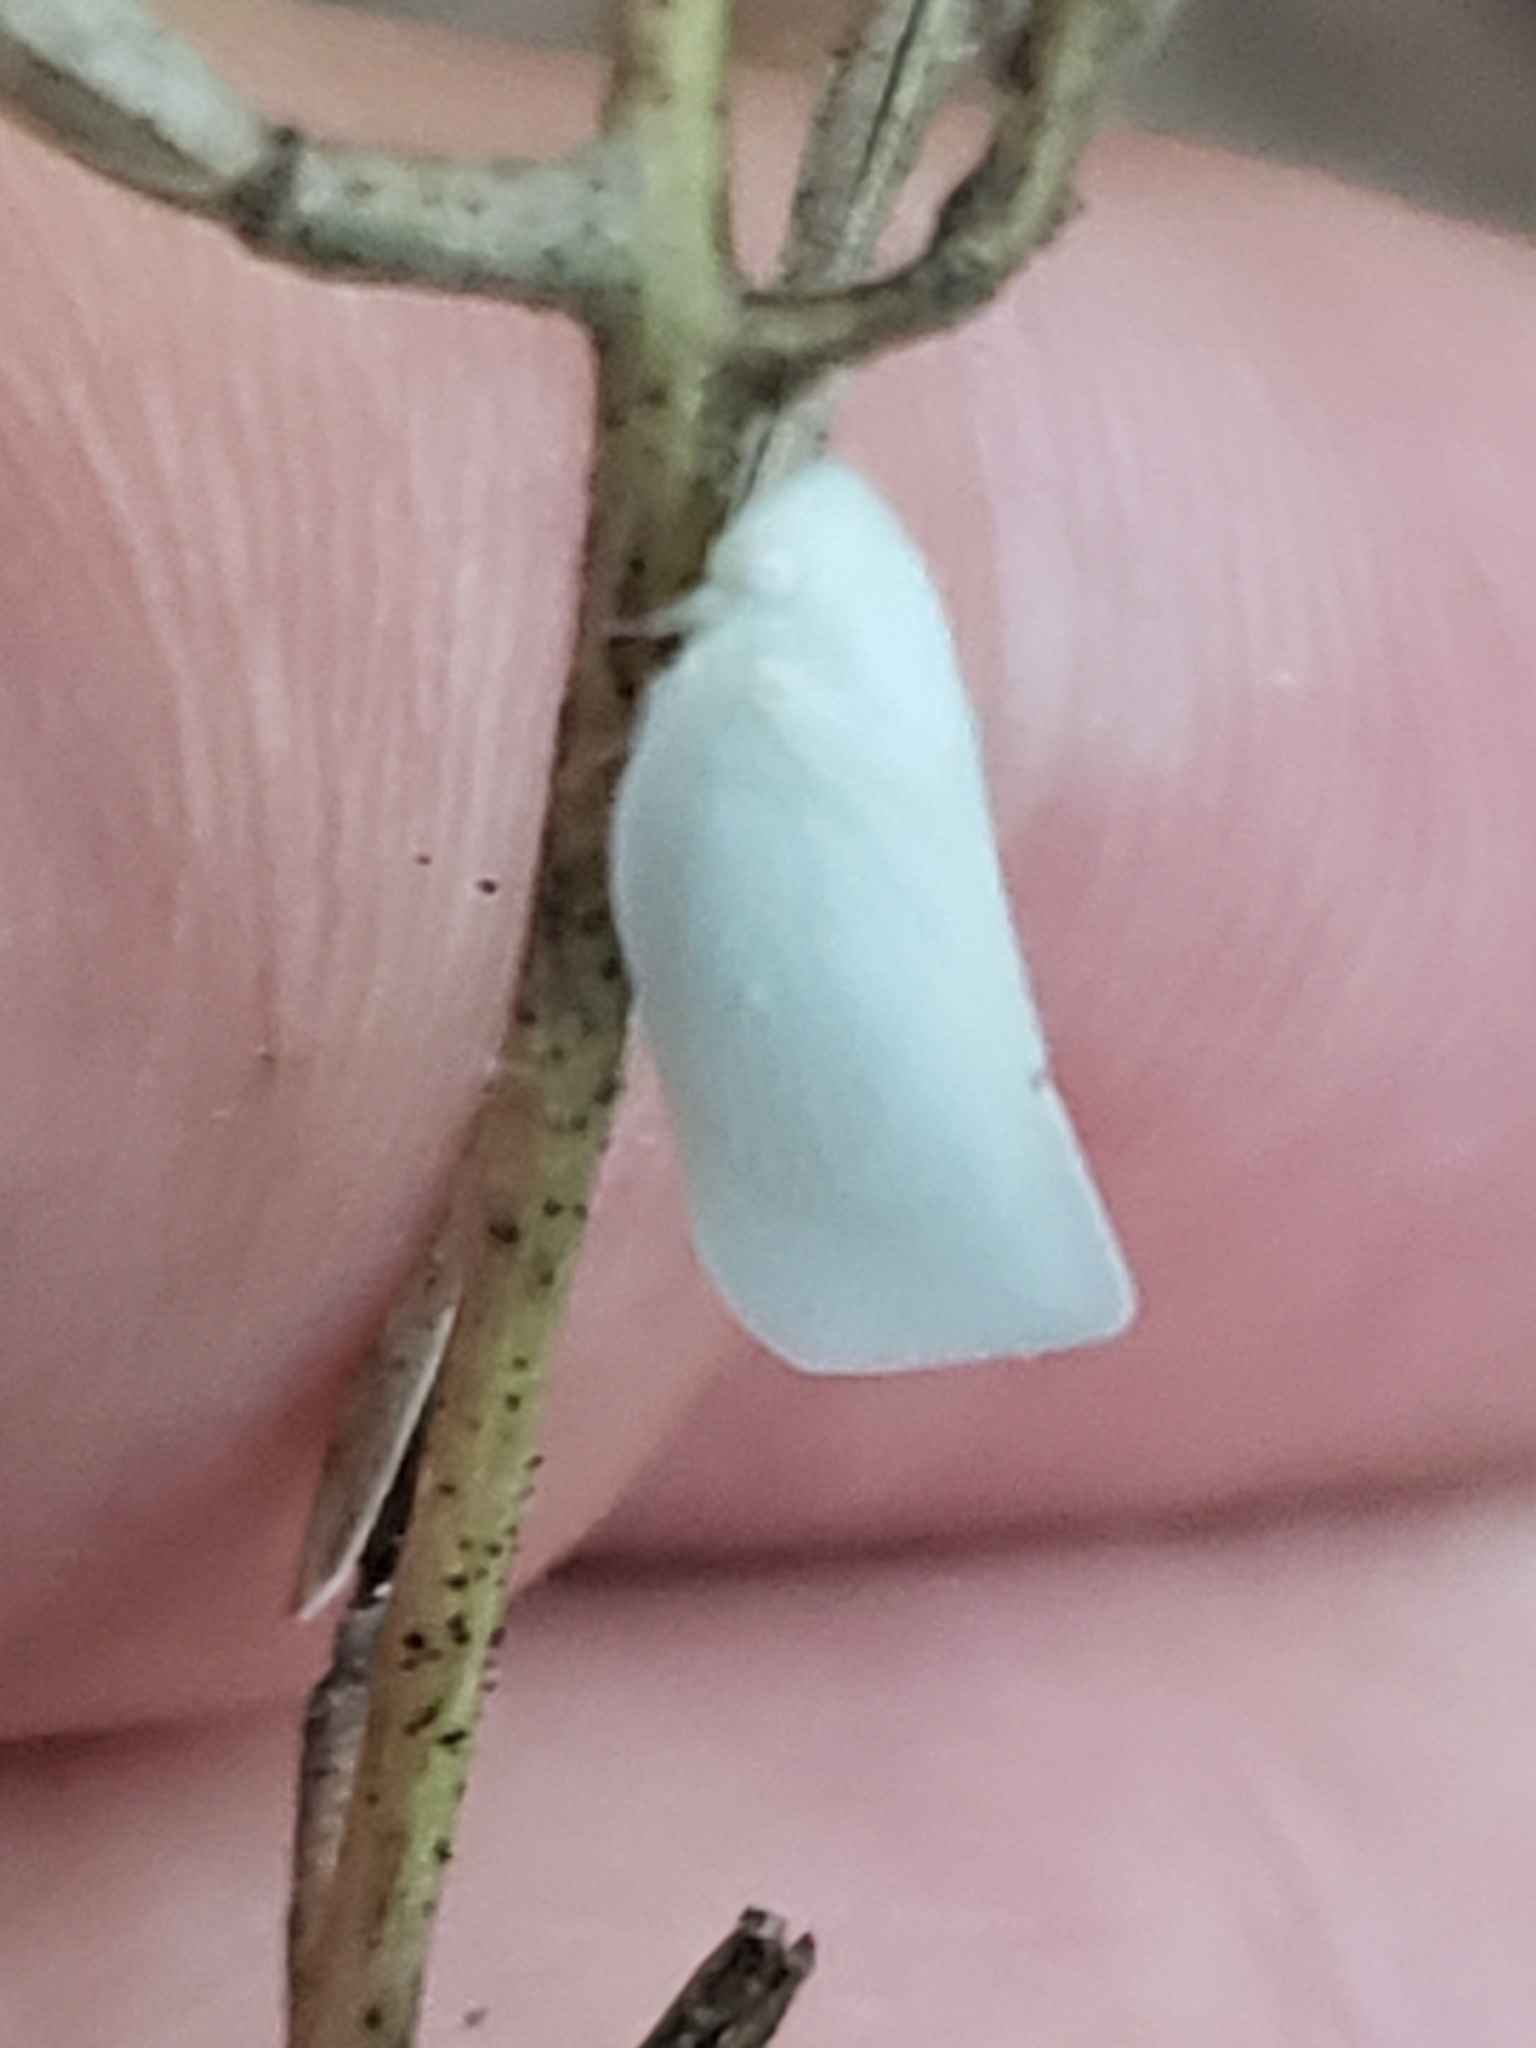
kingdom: Animalia
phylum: Arthropoda
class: Insecta
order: Hemiptera
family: Flatidae
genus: Flatormenis
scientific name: Flatormenis proxima
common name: Northern flatid planthopper
